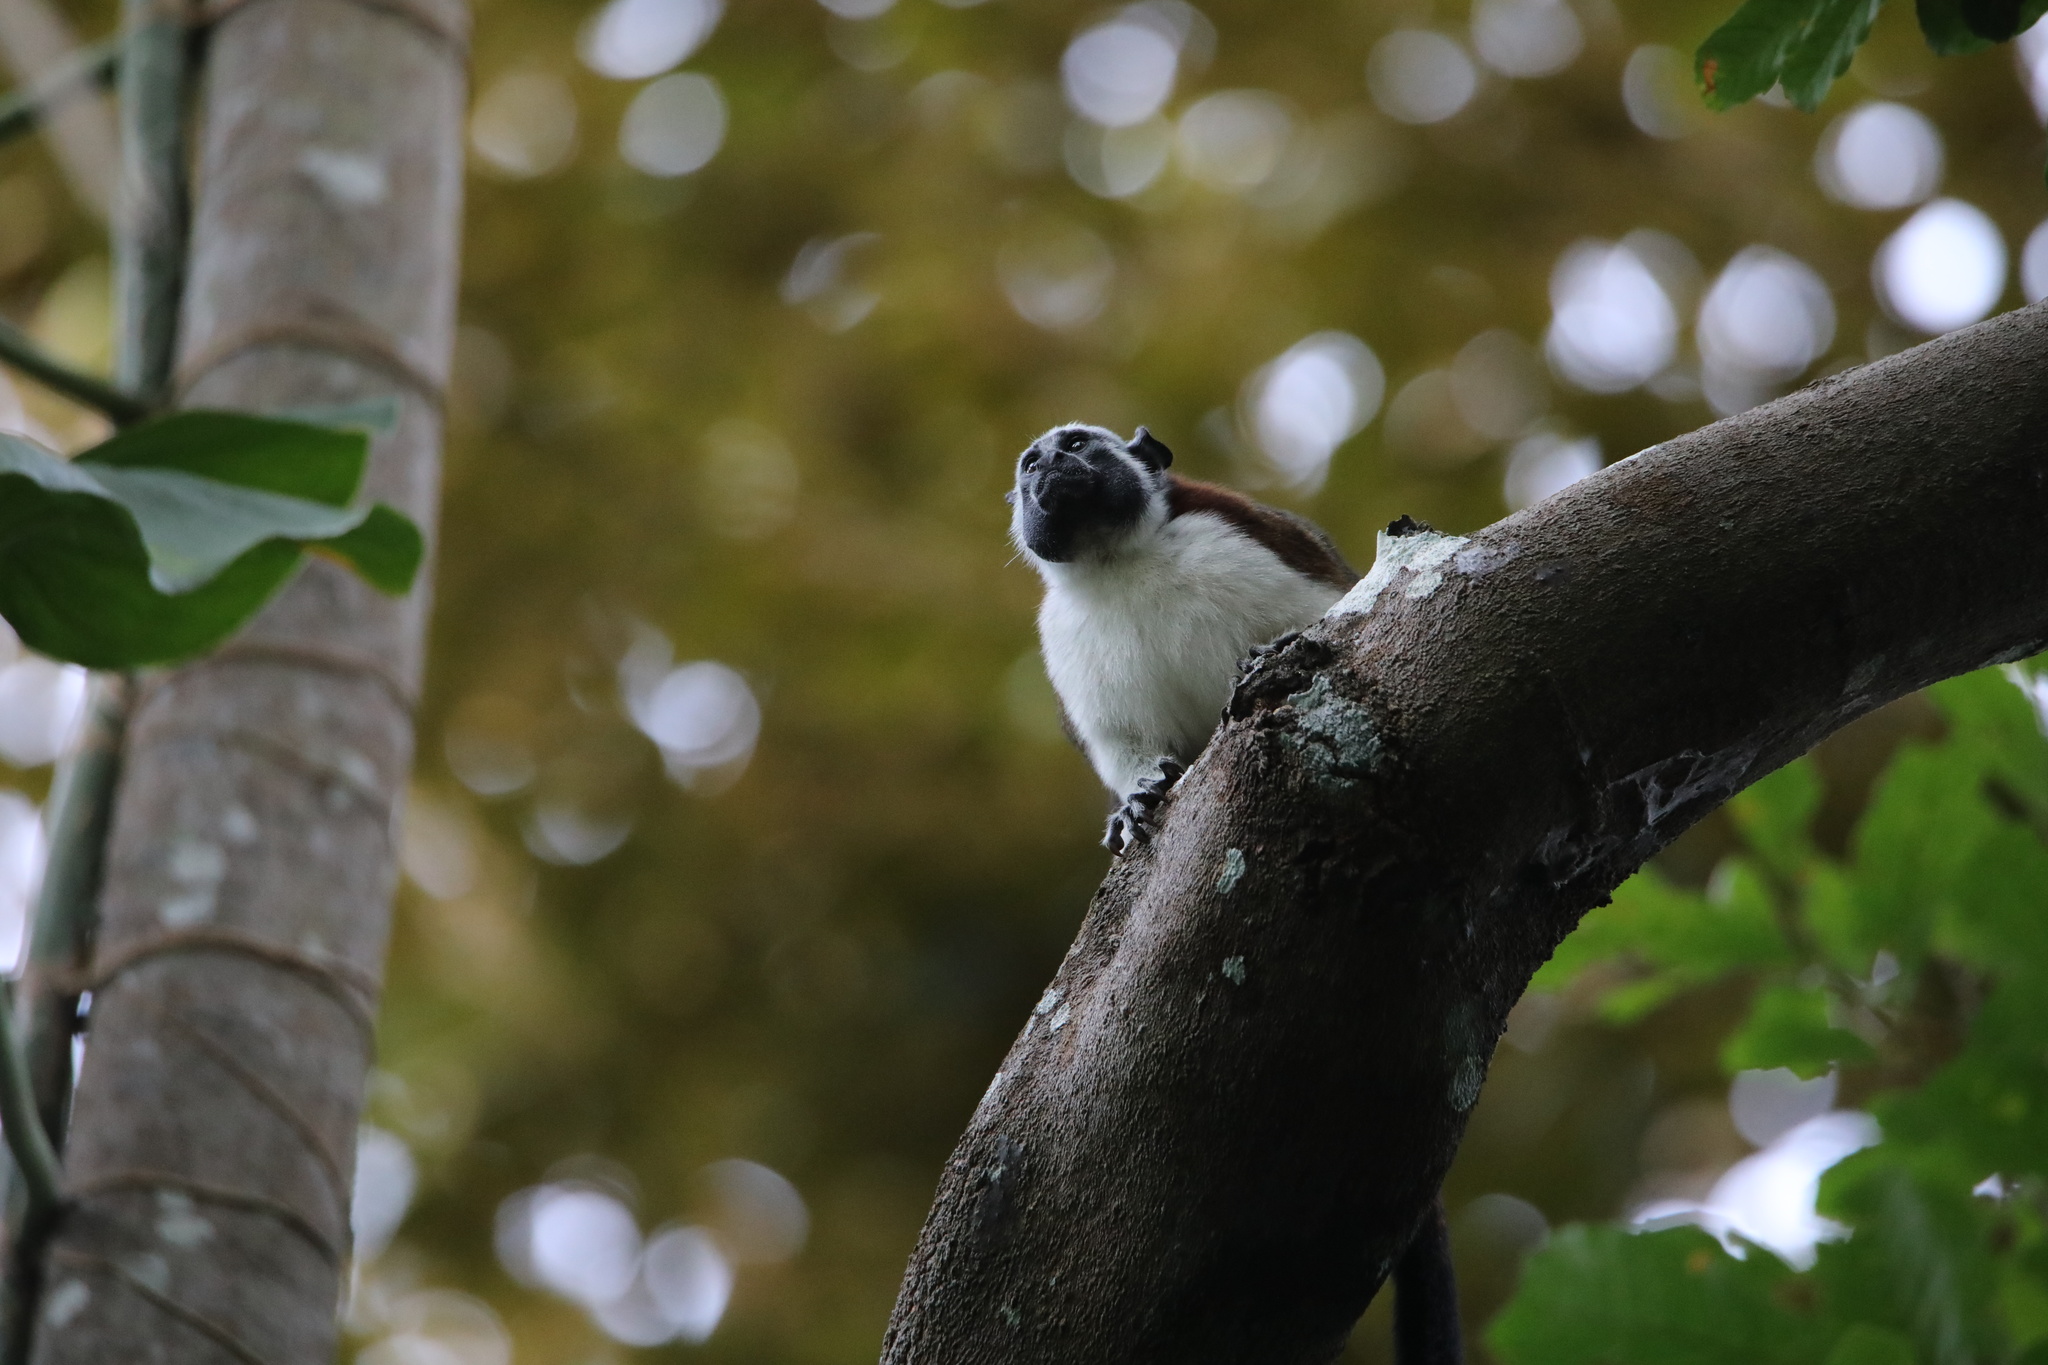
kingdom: Animalia
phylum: Chordata
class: Mammalia
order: Primates
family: Callitrichidae
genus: Saguinus
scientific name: Saguinus geoffroyi
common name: Geoffroy s tamarin
